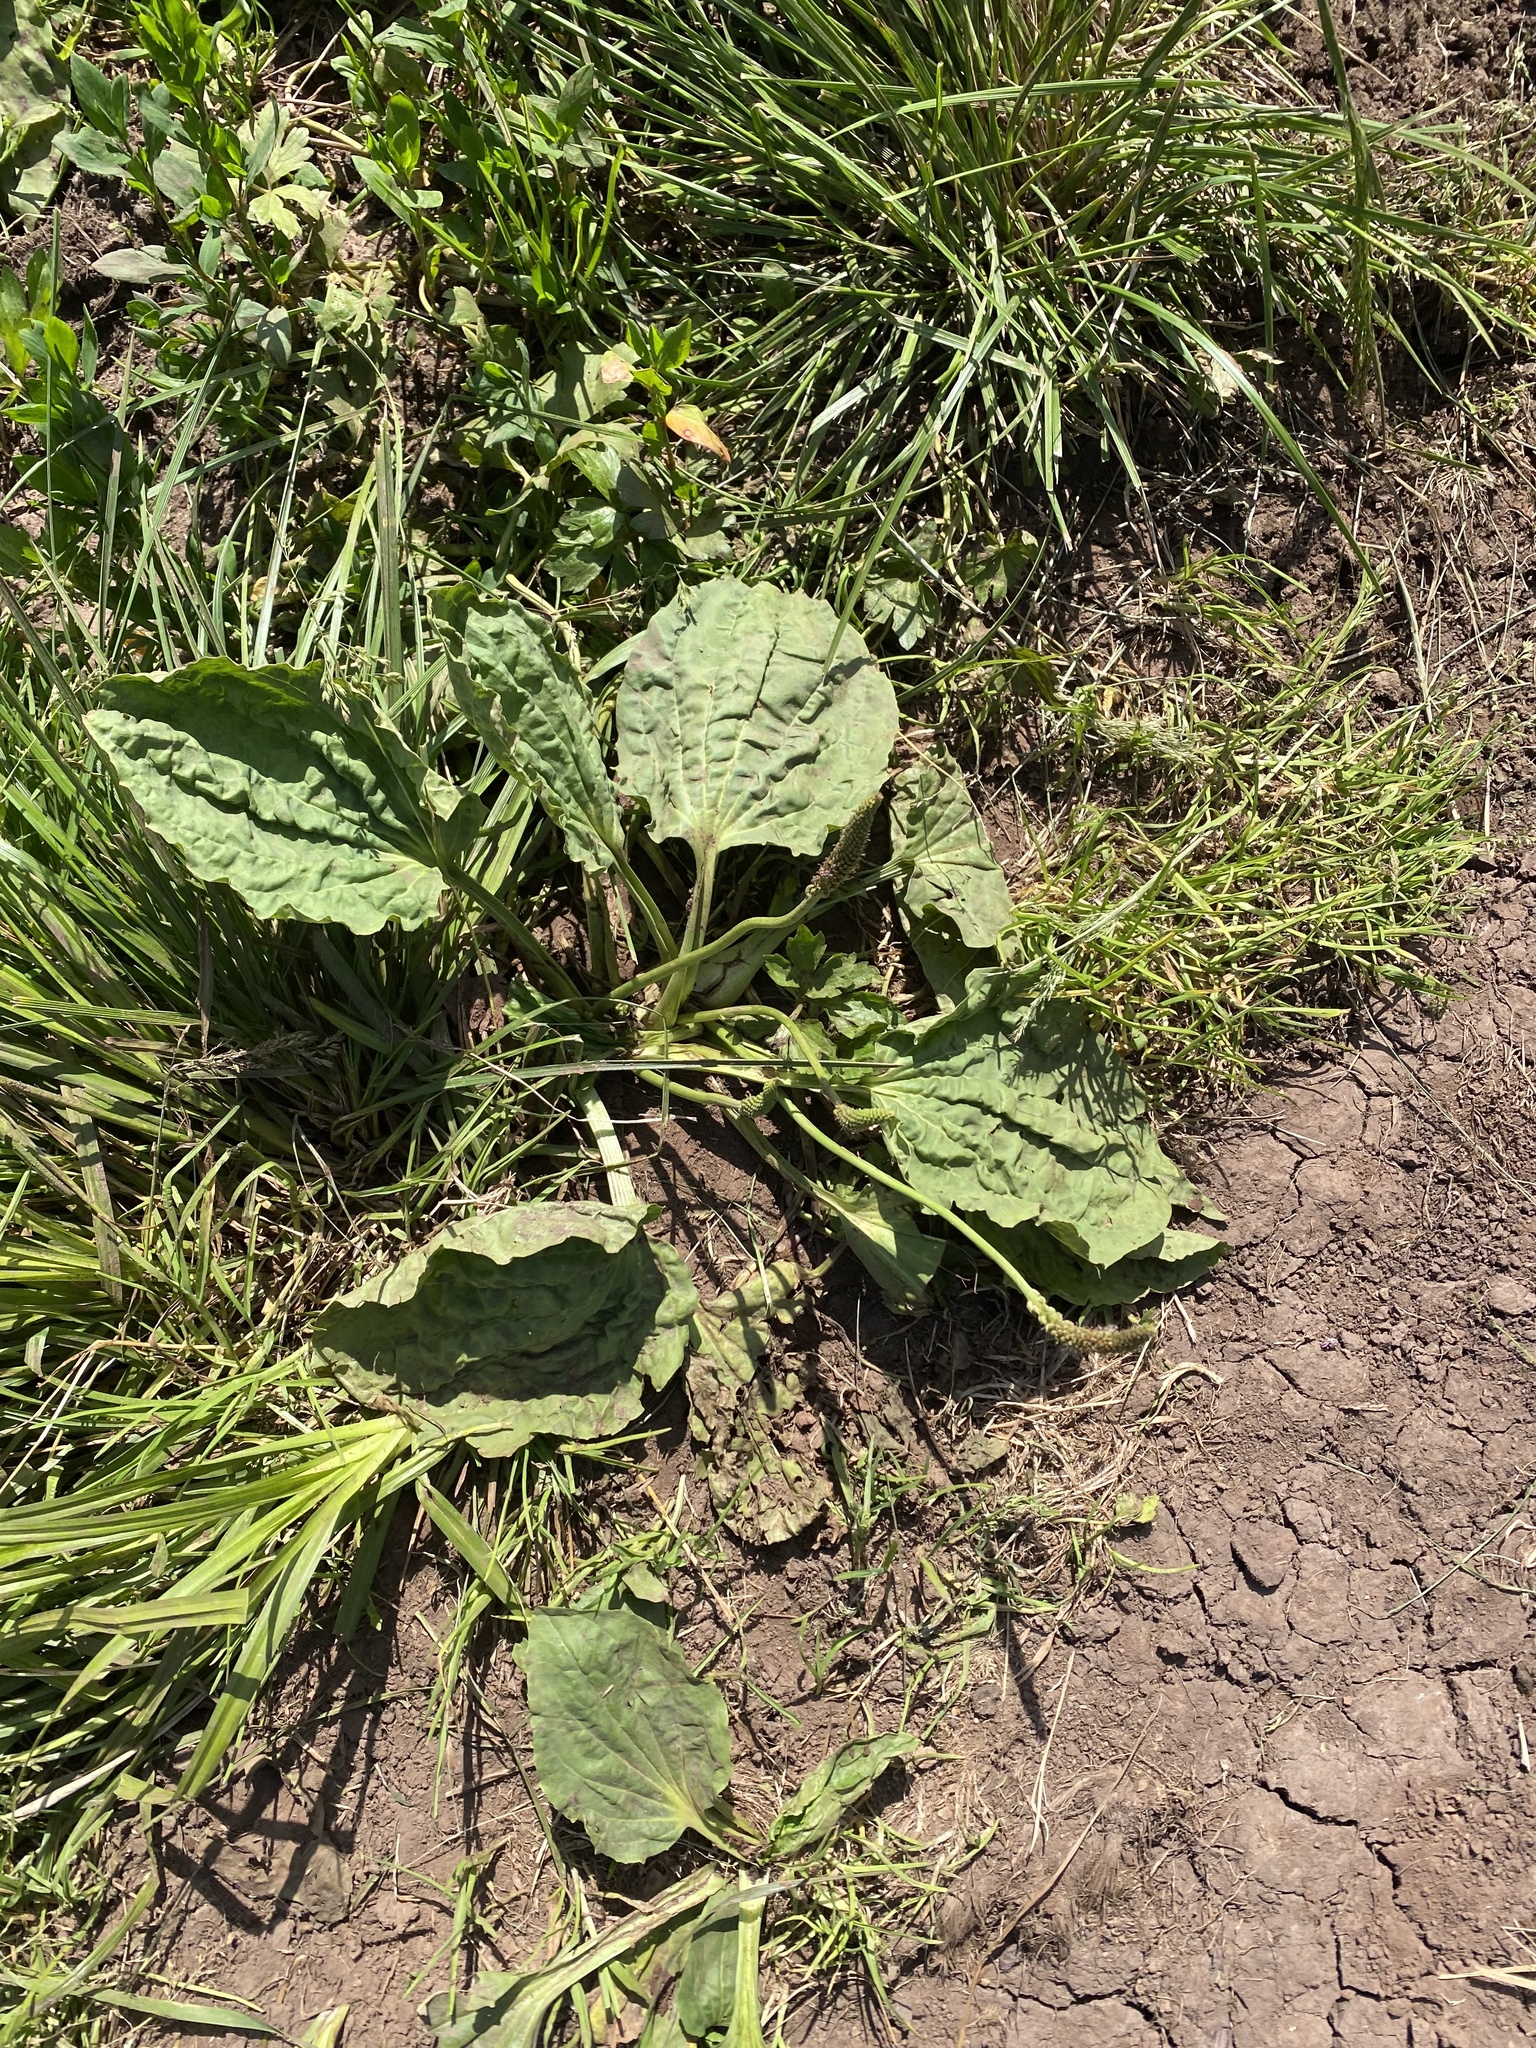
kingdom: Plantae
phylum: Tracheophyta
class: Magnoliopsida
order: Lamiales
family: Plantaginaceae
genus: Plantago
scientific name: Plantago major
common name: Common plantain
